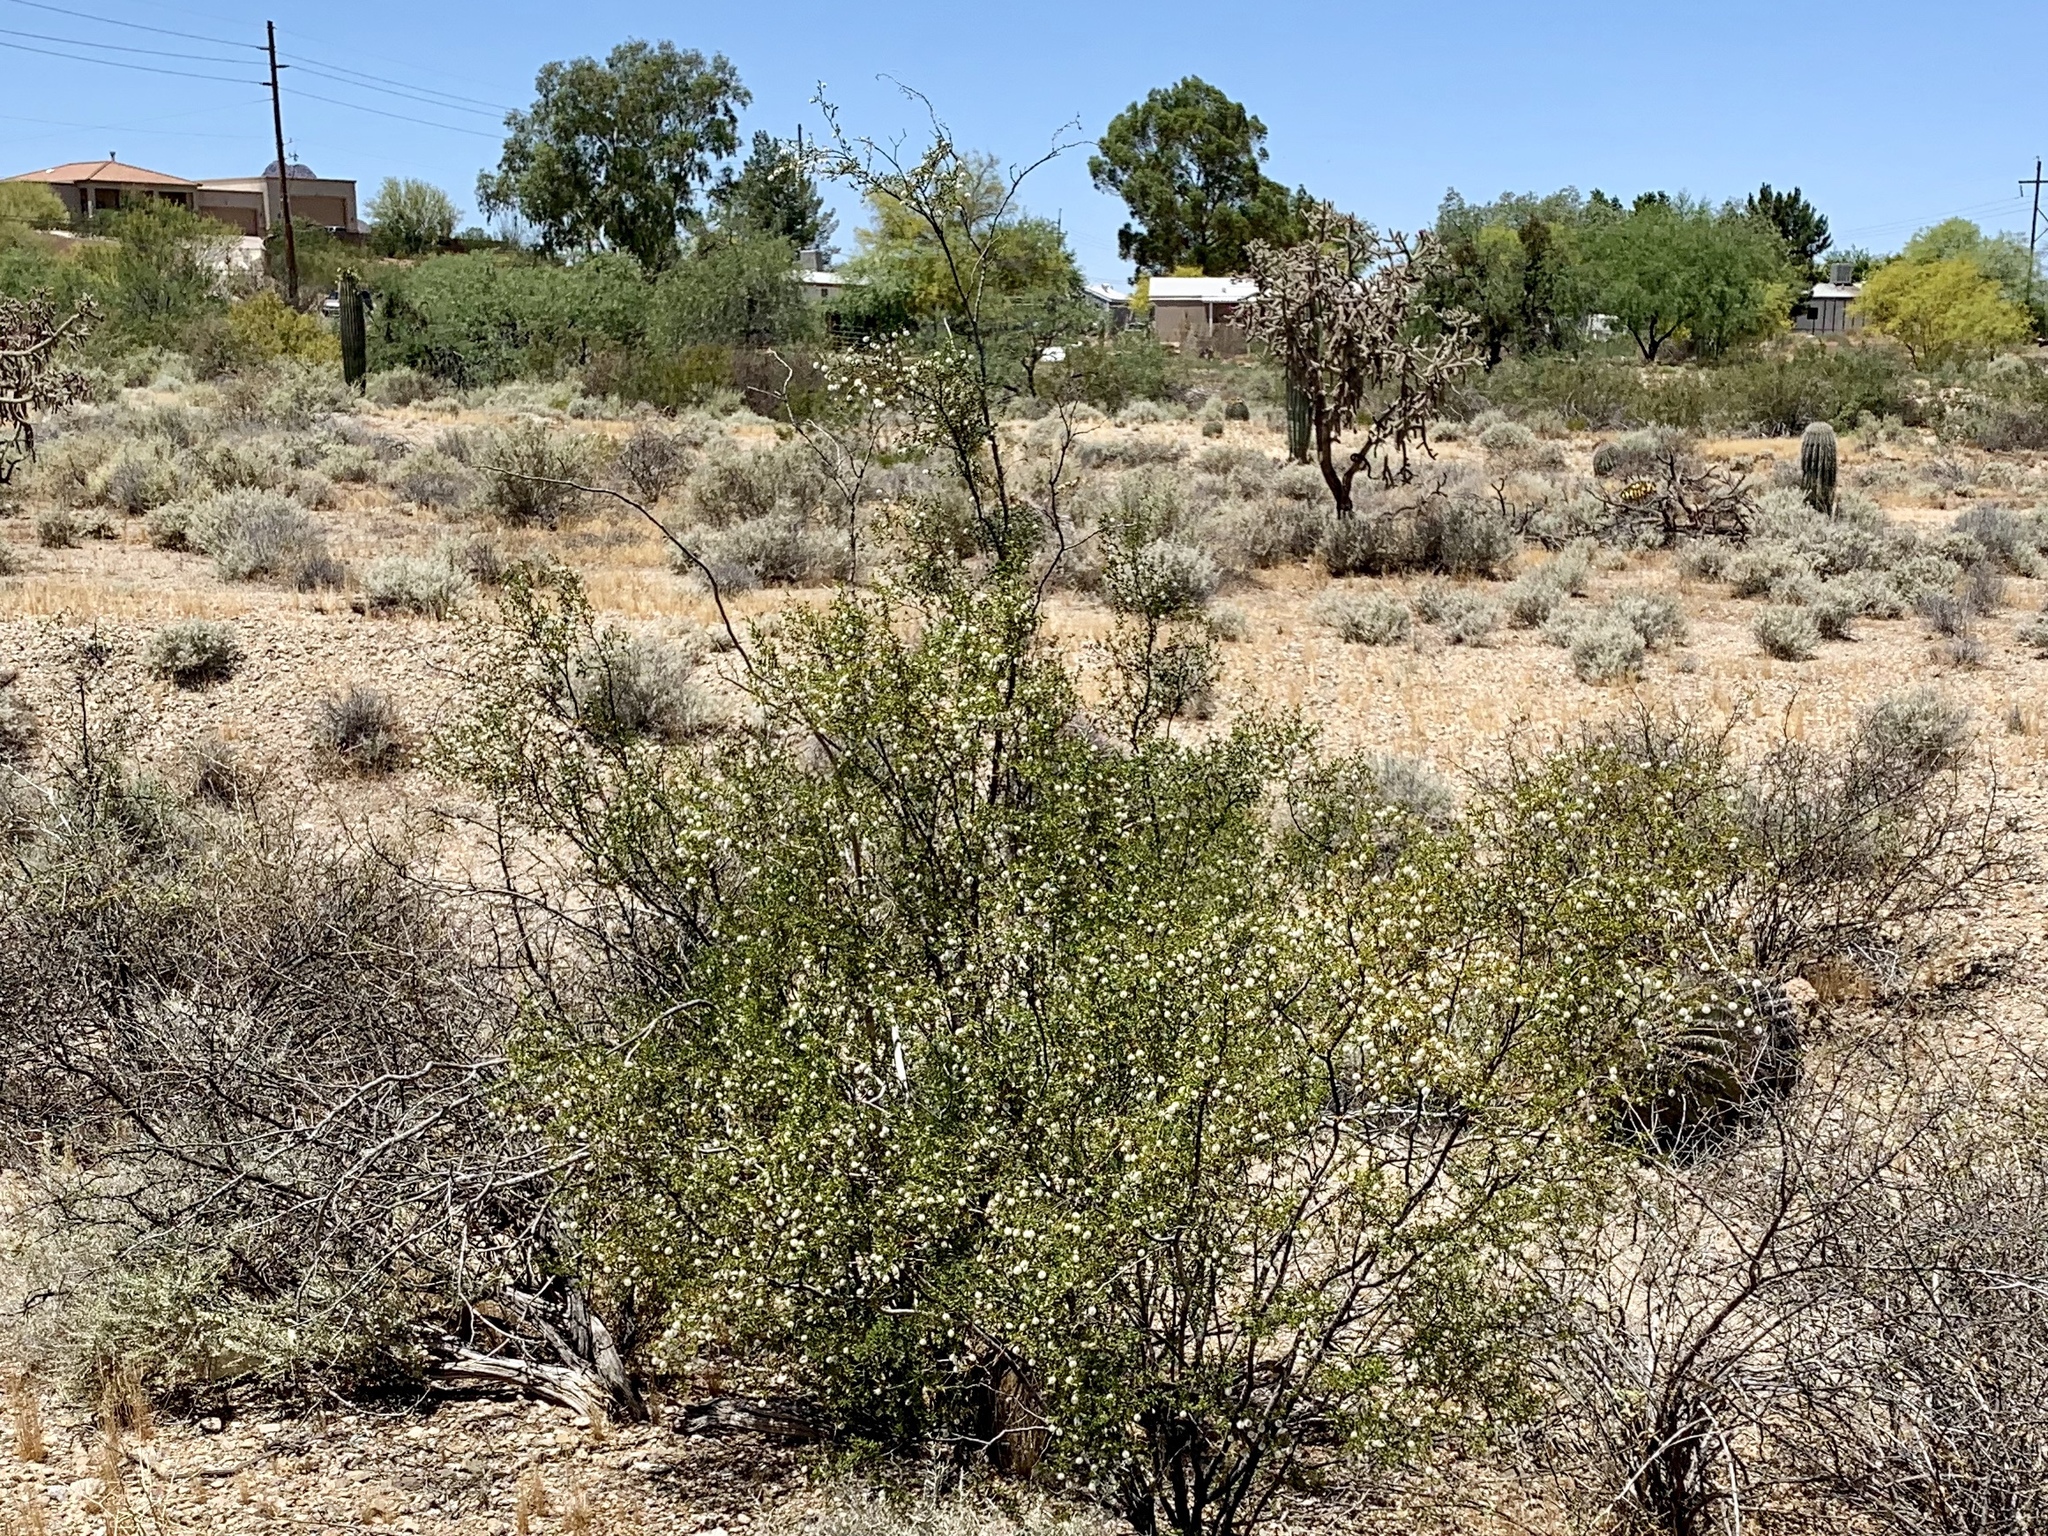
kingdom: Plantae
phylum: Tracheophyta
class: Magnoliopsida
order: Zygophyllales
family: Zygophyllaceae
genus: Larrea
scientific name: Larrea tridentata
